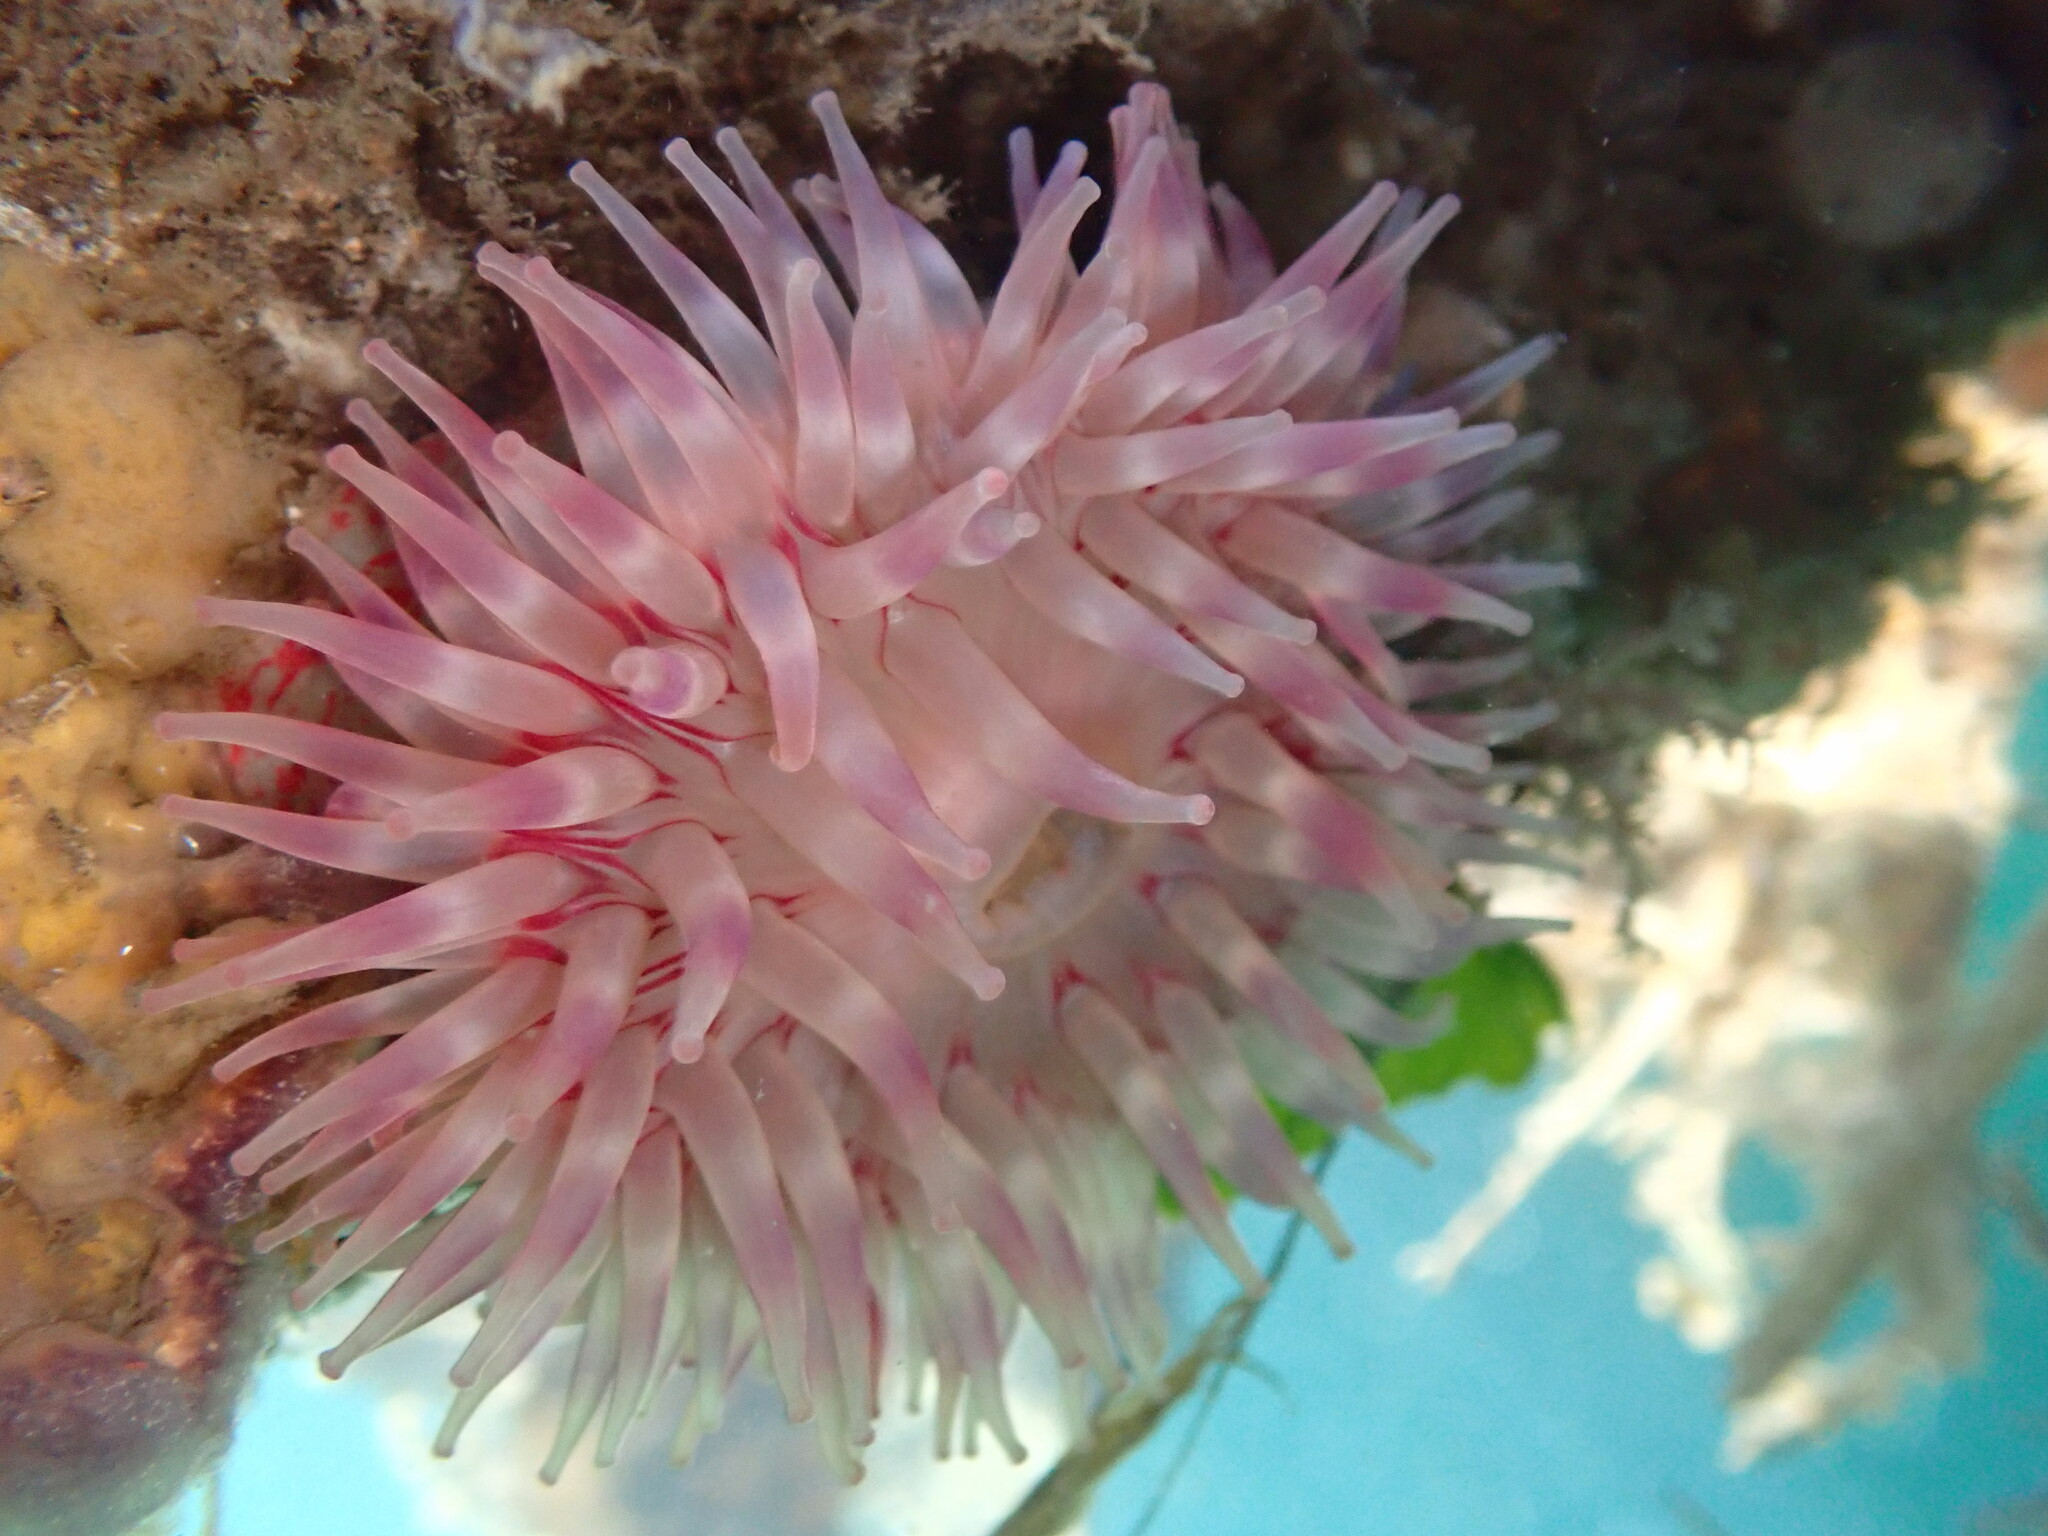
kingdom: Animalia
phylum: Cnidaria
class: Anthozoa
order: Actiniaria
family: Actiniidae
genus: Urticina
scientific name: Urticina grebelnyi
